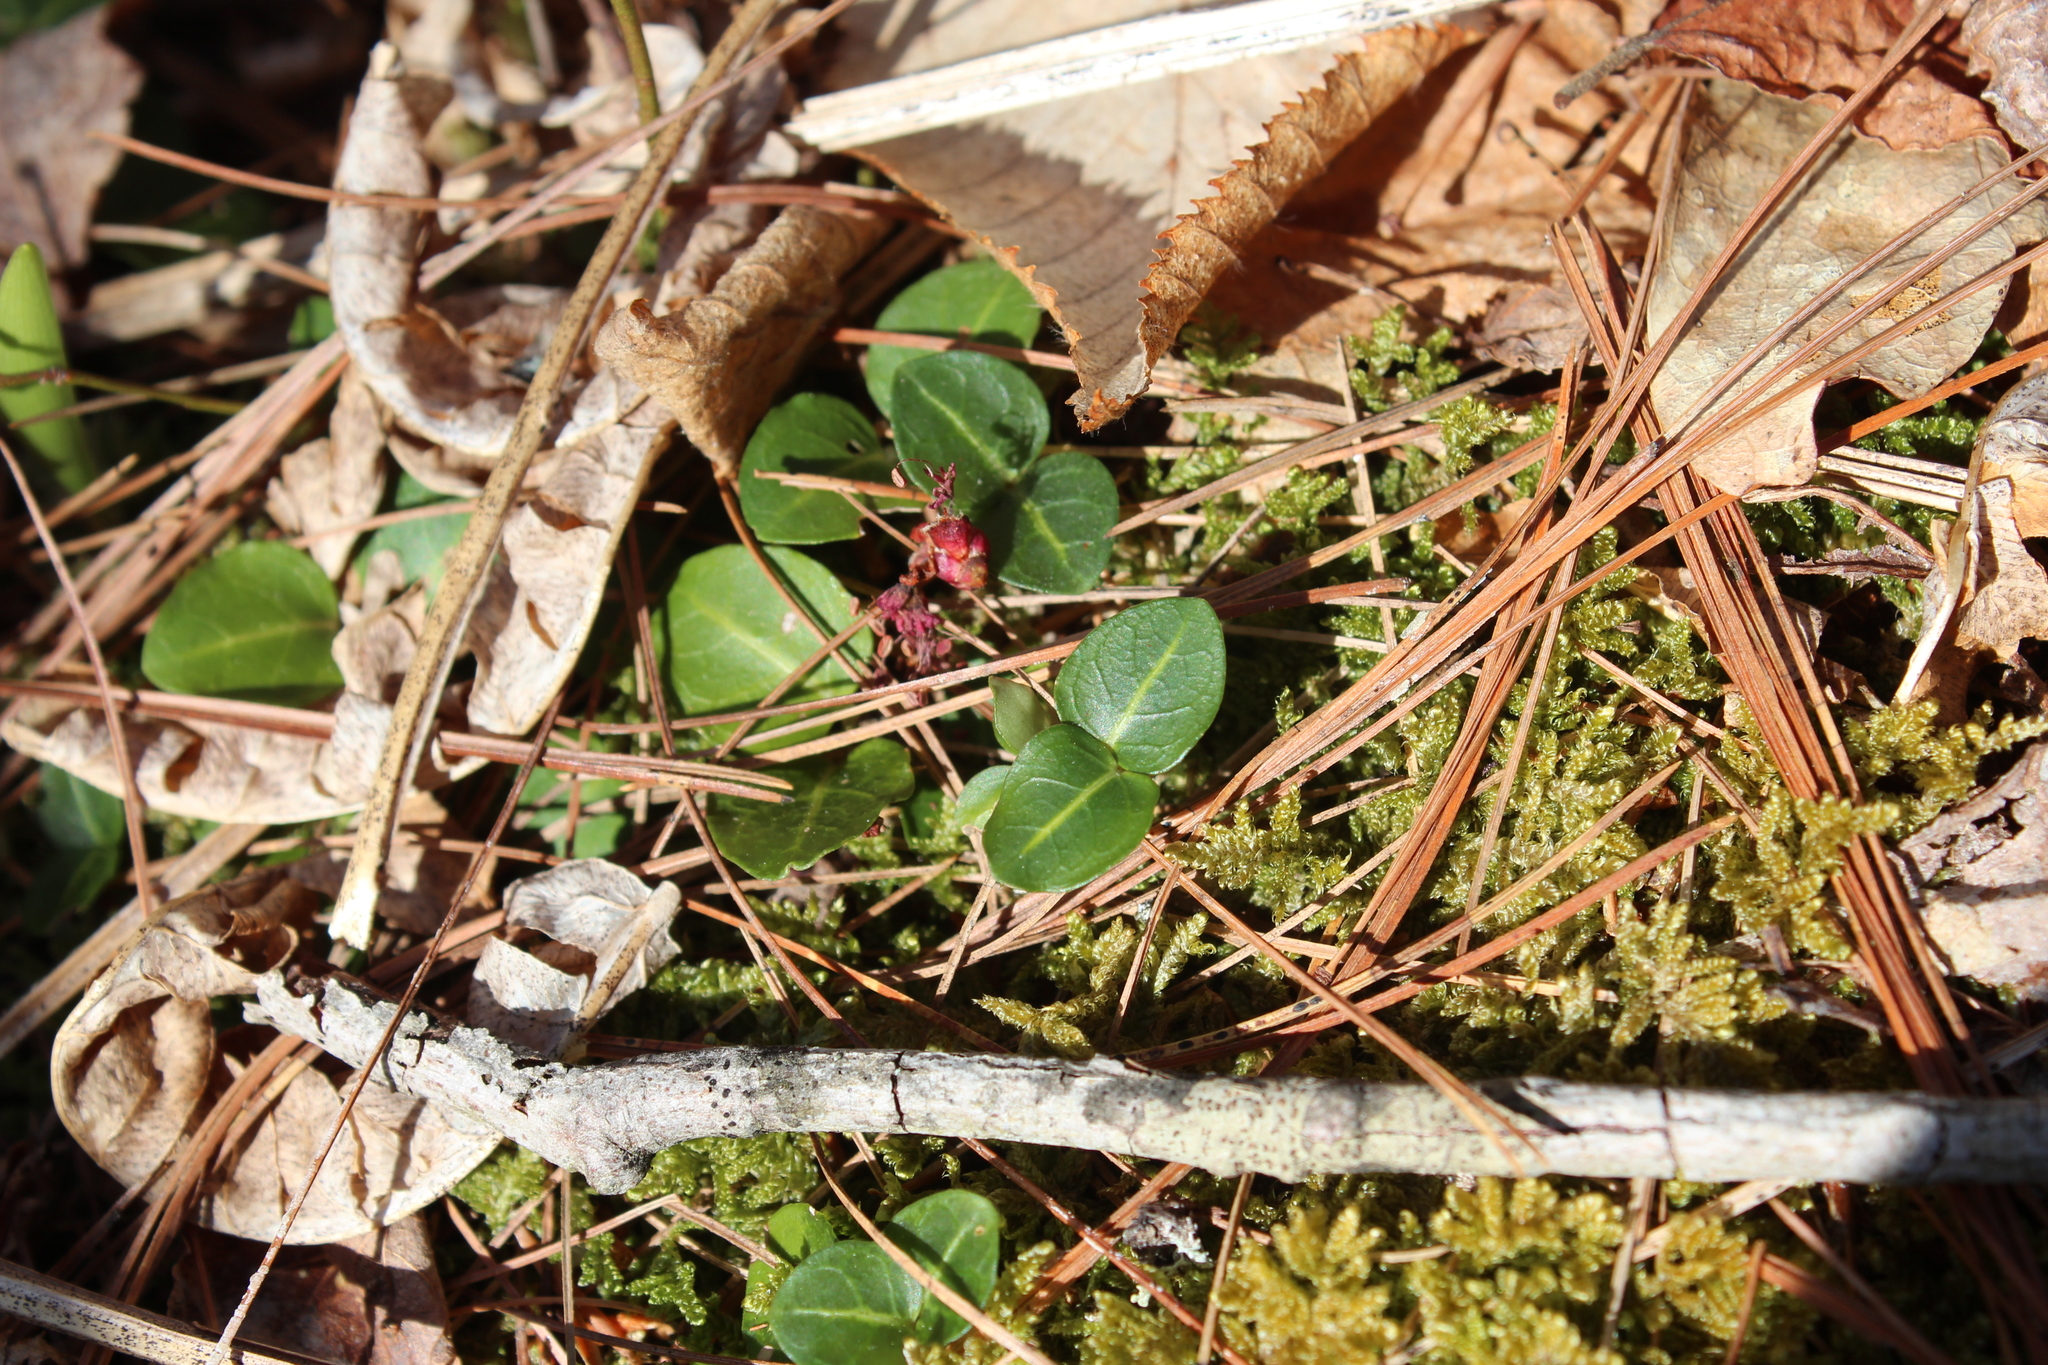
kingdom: Plantae
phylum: Tracheophyta
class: Magnoliopsida
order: Gentianales
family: Rubiaceae
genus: Mitchella
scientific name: Mitchella repens
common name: Partridge-berry
